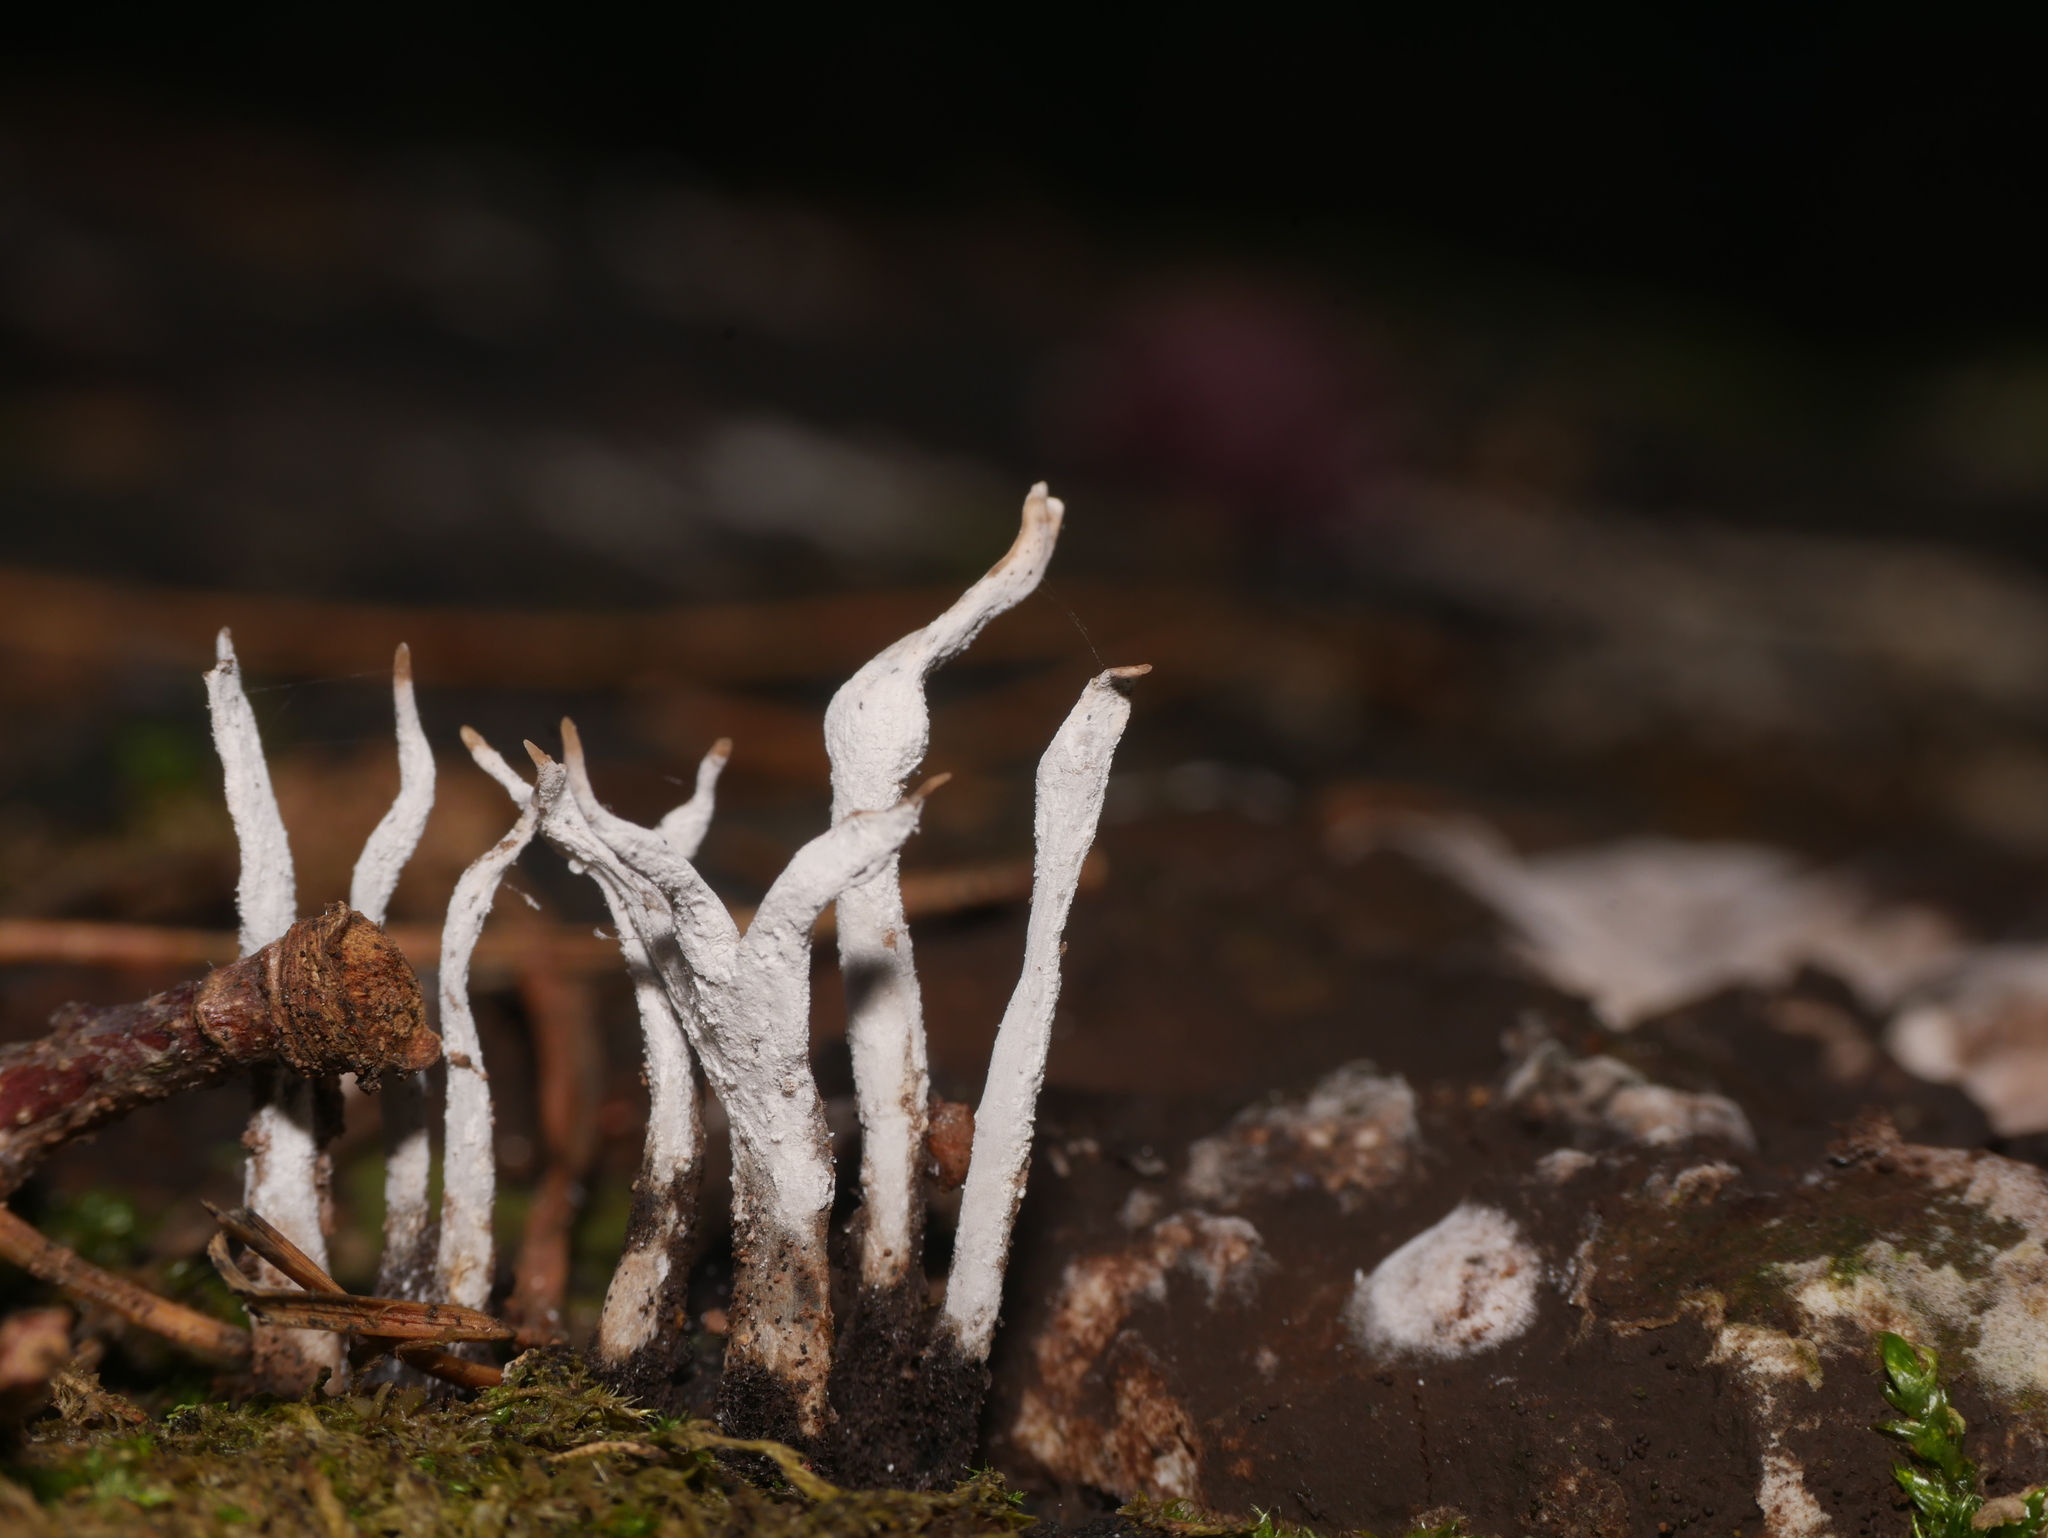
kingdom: Fungi
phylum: Ascomycota
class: Sordariomycetes
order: Xylariales
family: Xylariaceae
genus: Xylaria
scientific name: Xylaria hypoxylon
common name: Candle-snuff fungus
